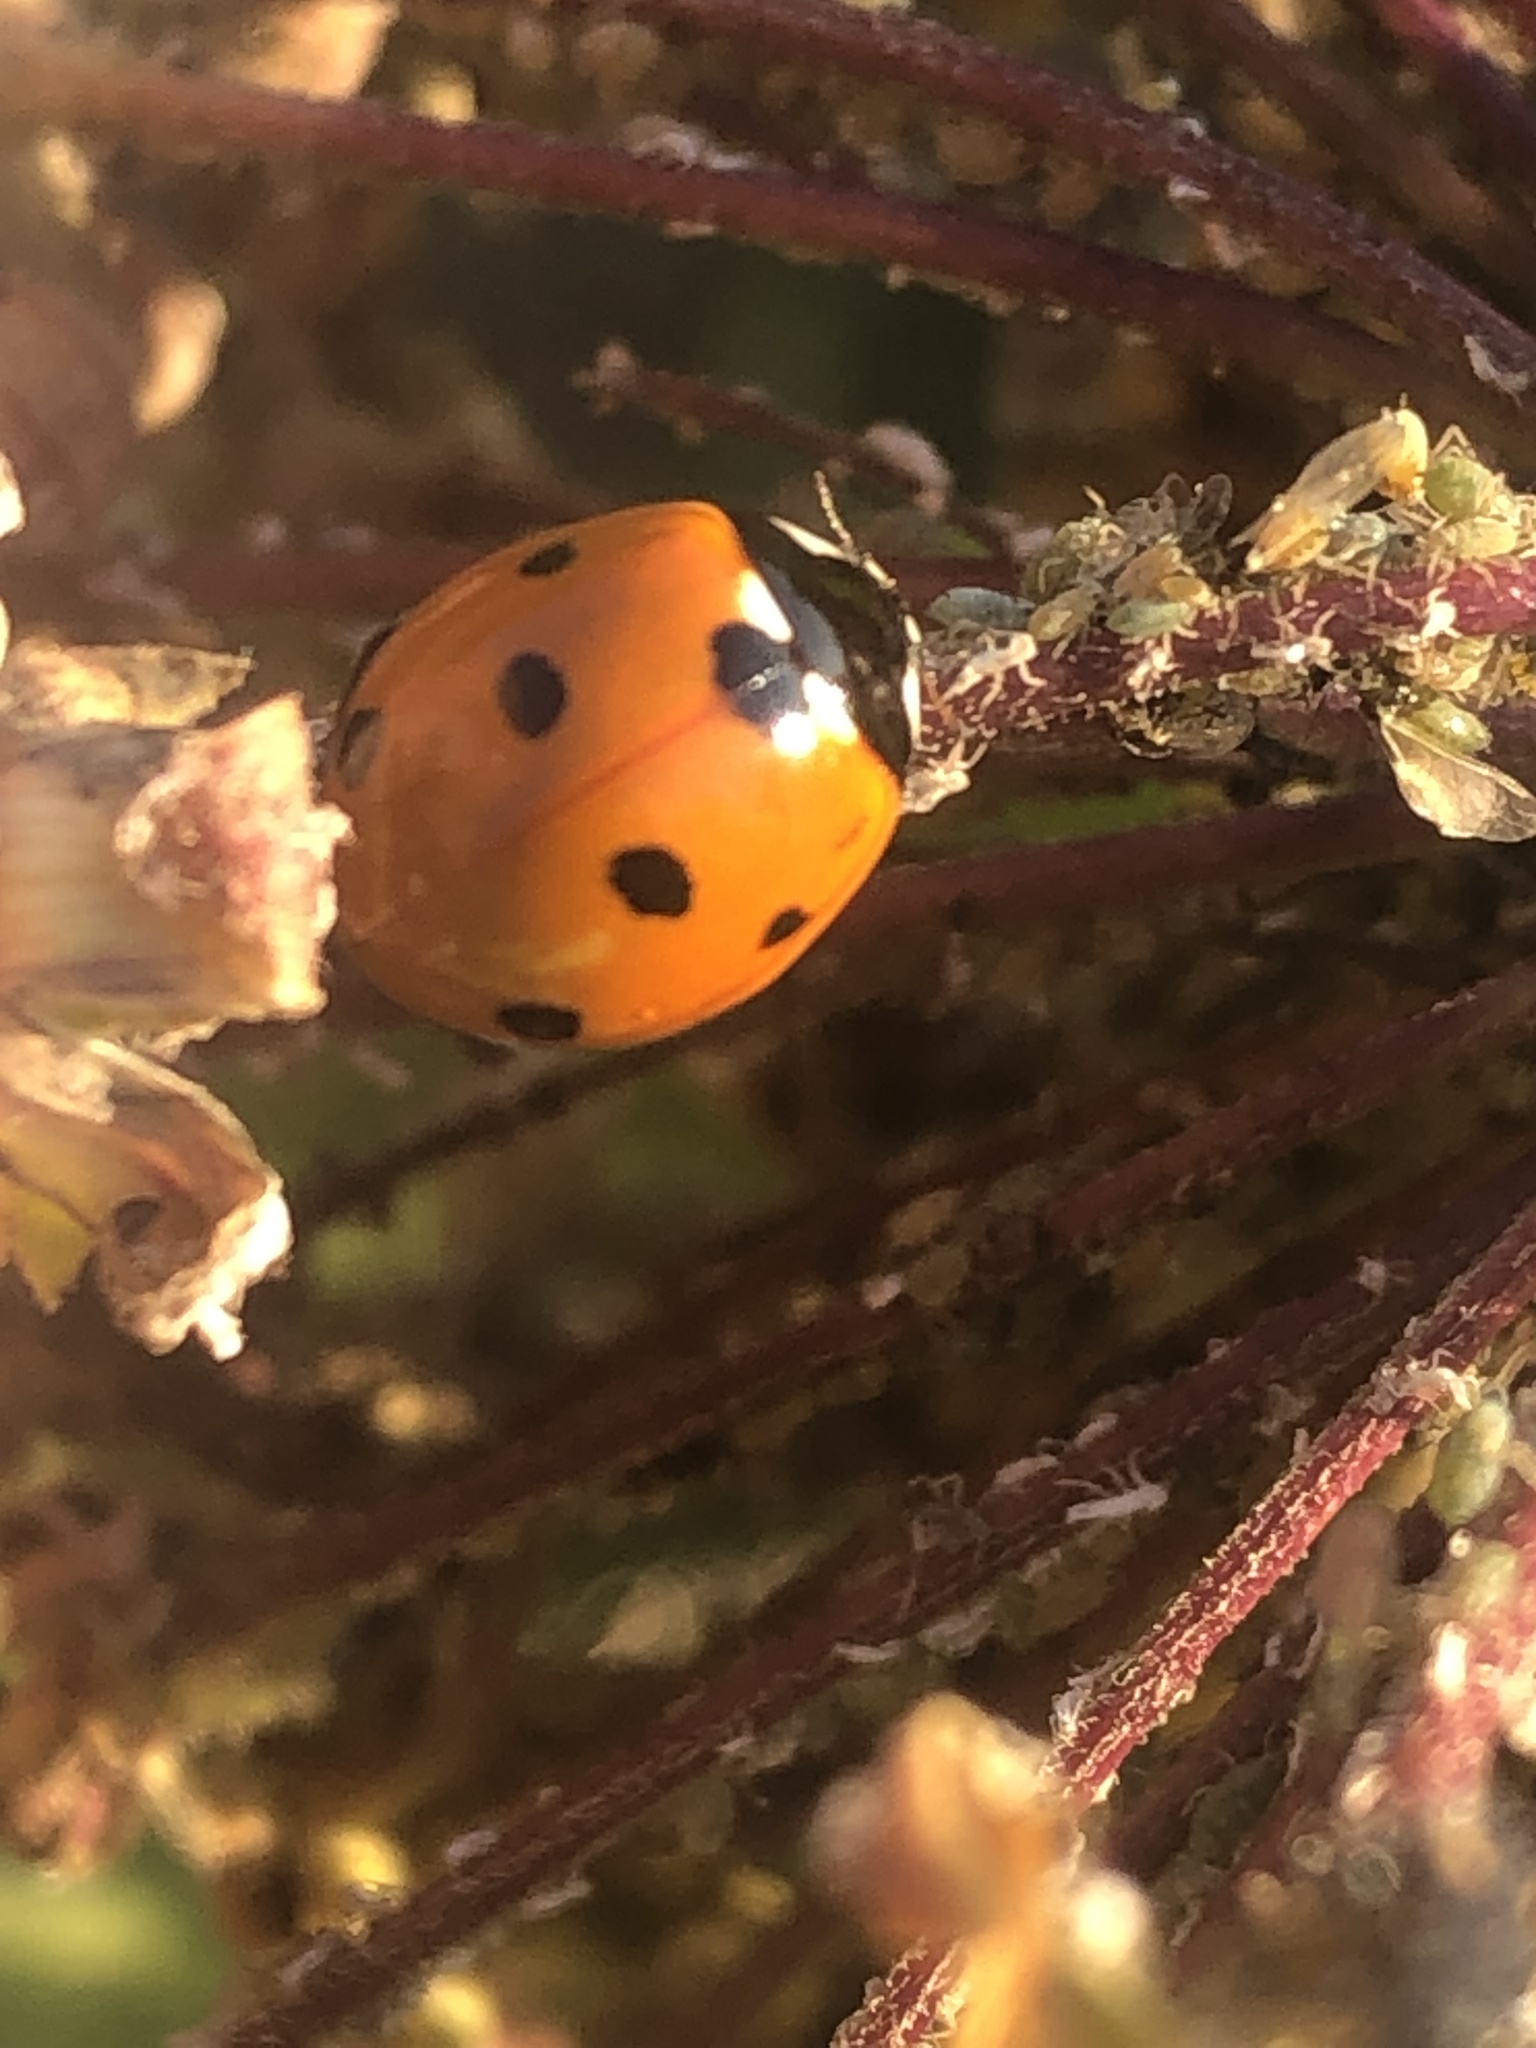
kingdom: Animalia
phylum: Arthropoda
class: Insecta
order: Coleoptera
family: Coccinellidae
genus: Coccinella
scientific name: Coccinella septempunctata
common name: Sevenspotted lady beetle
